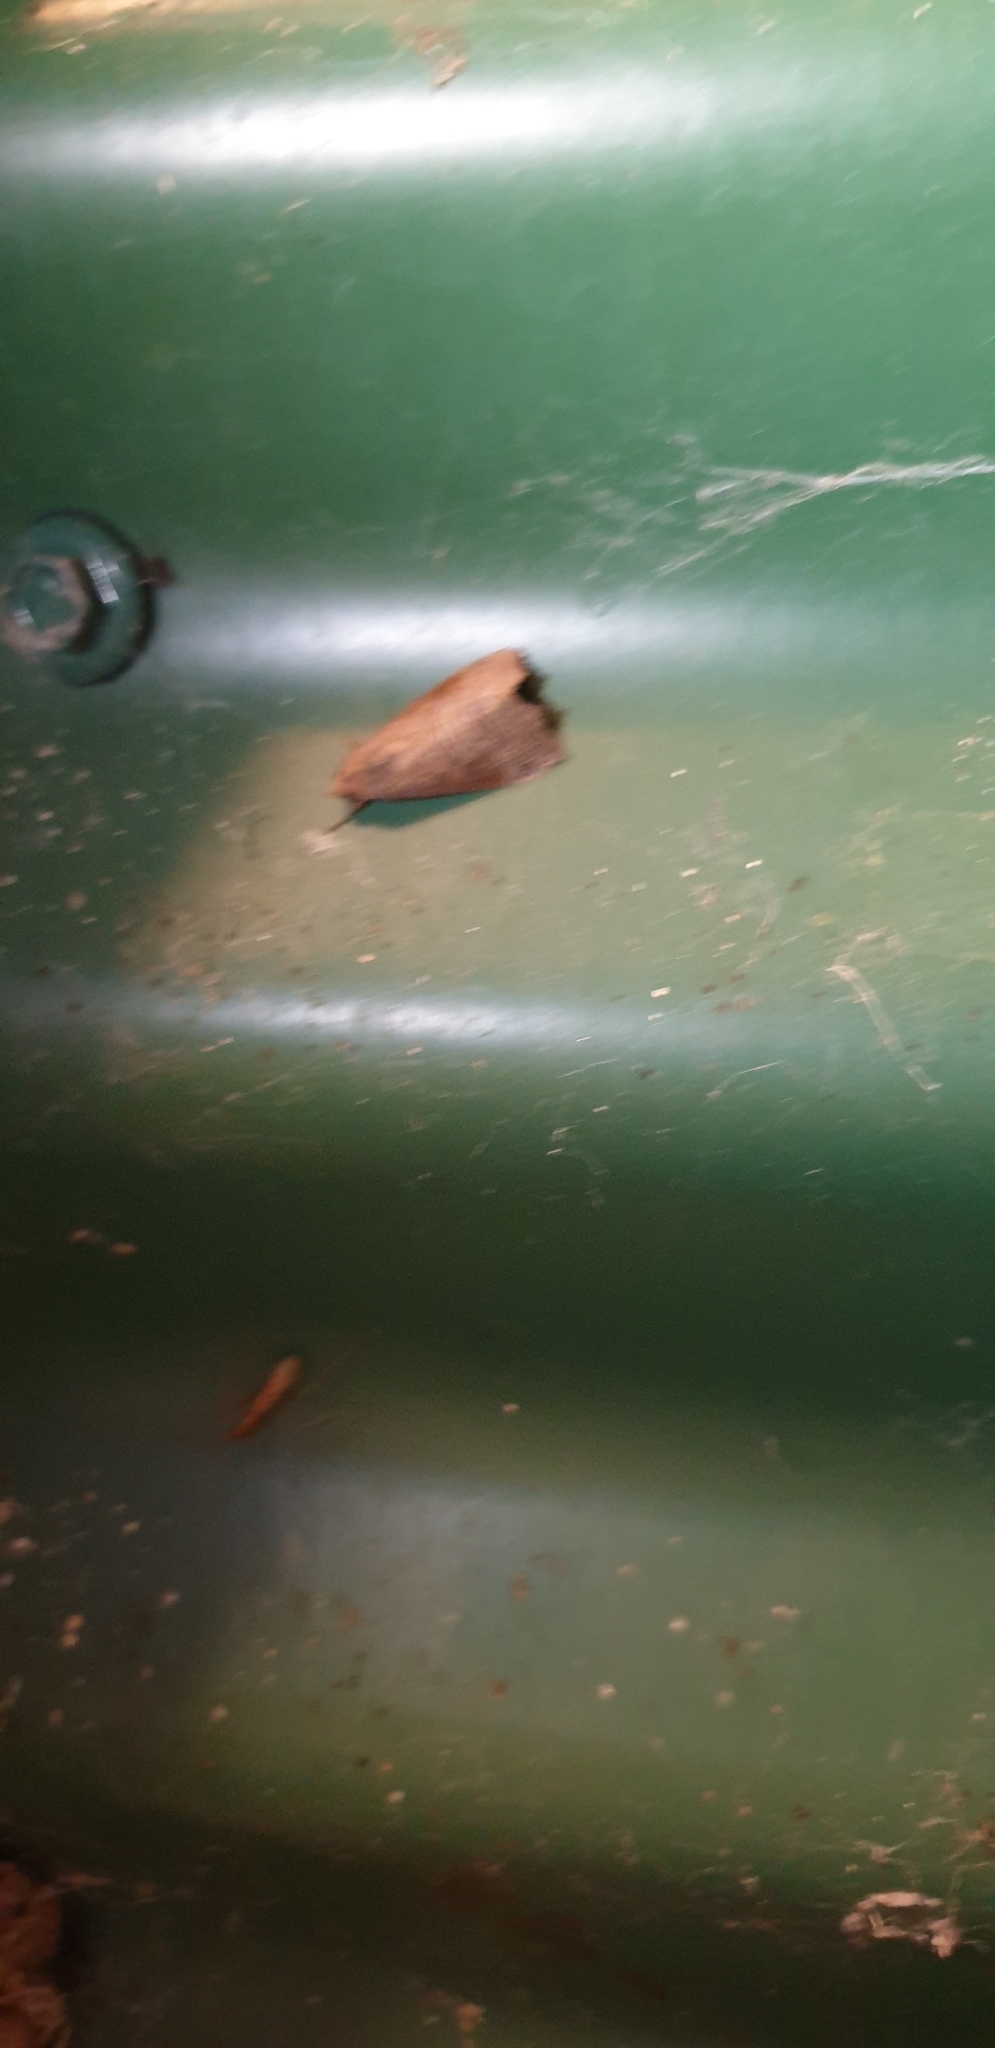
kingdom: Animalia
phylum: Arthropoda
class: Insecta
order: Lepidoptera
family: Erebidae
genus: Gonitis
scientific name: Gonitis involuta
